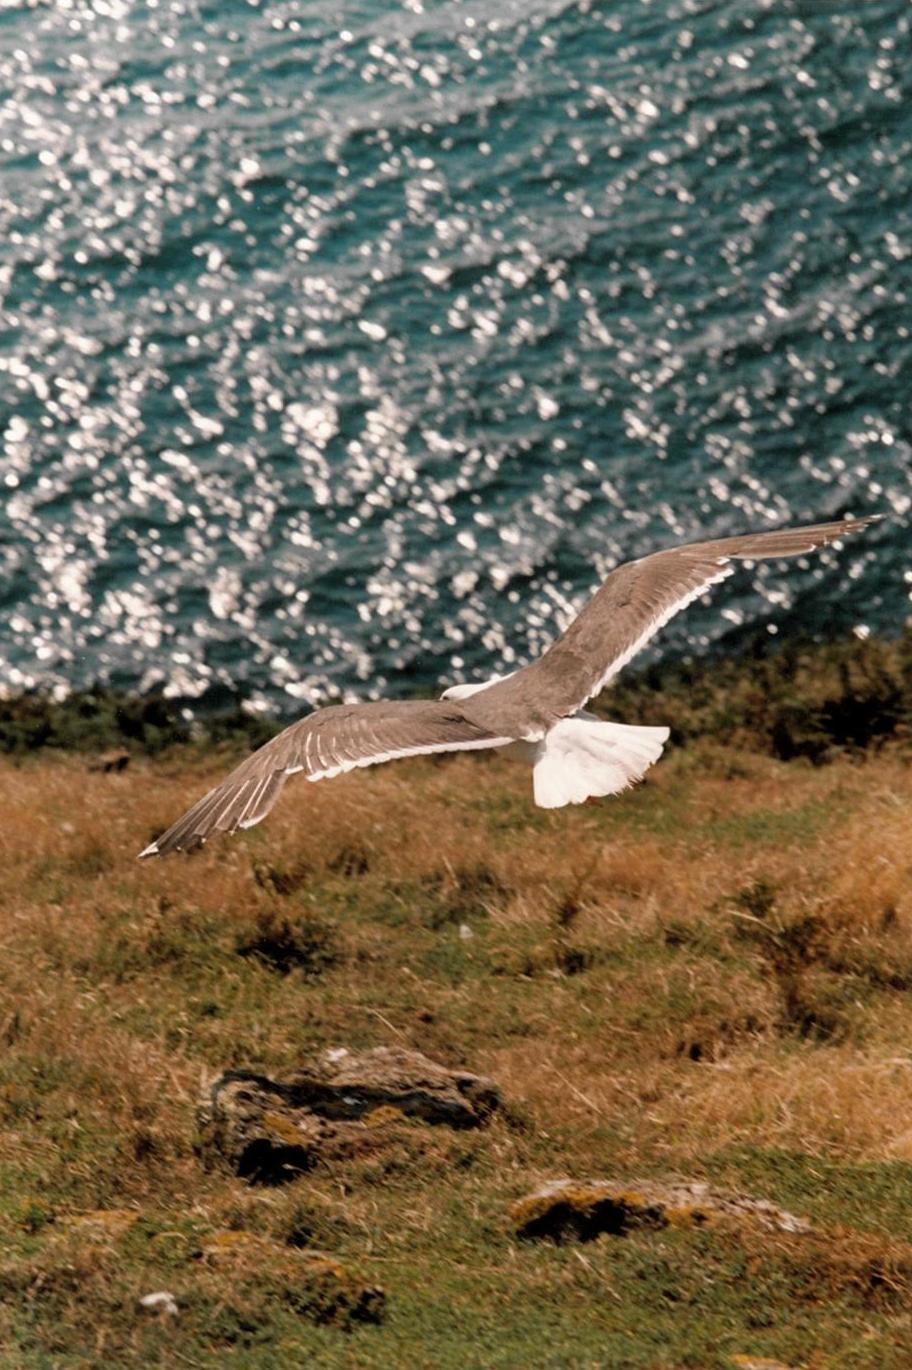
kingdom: Animalia
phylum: Chordata
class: Aves
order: Charadriiformes
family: Laridae
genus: Larus
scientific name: Larus fuscus
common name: Lesser black-backed gull
